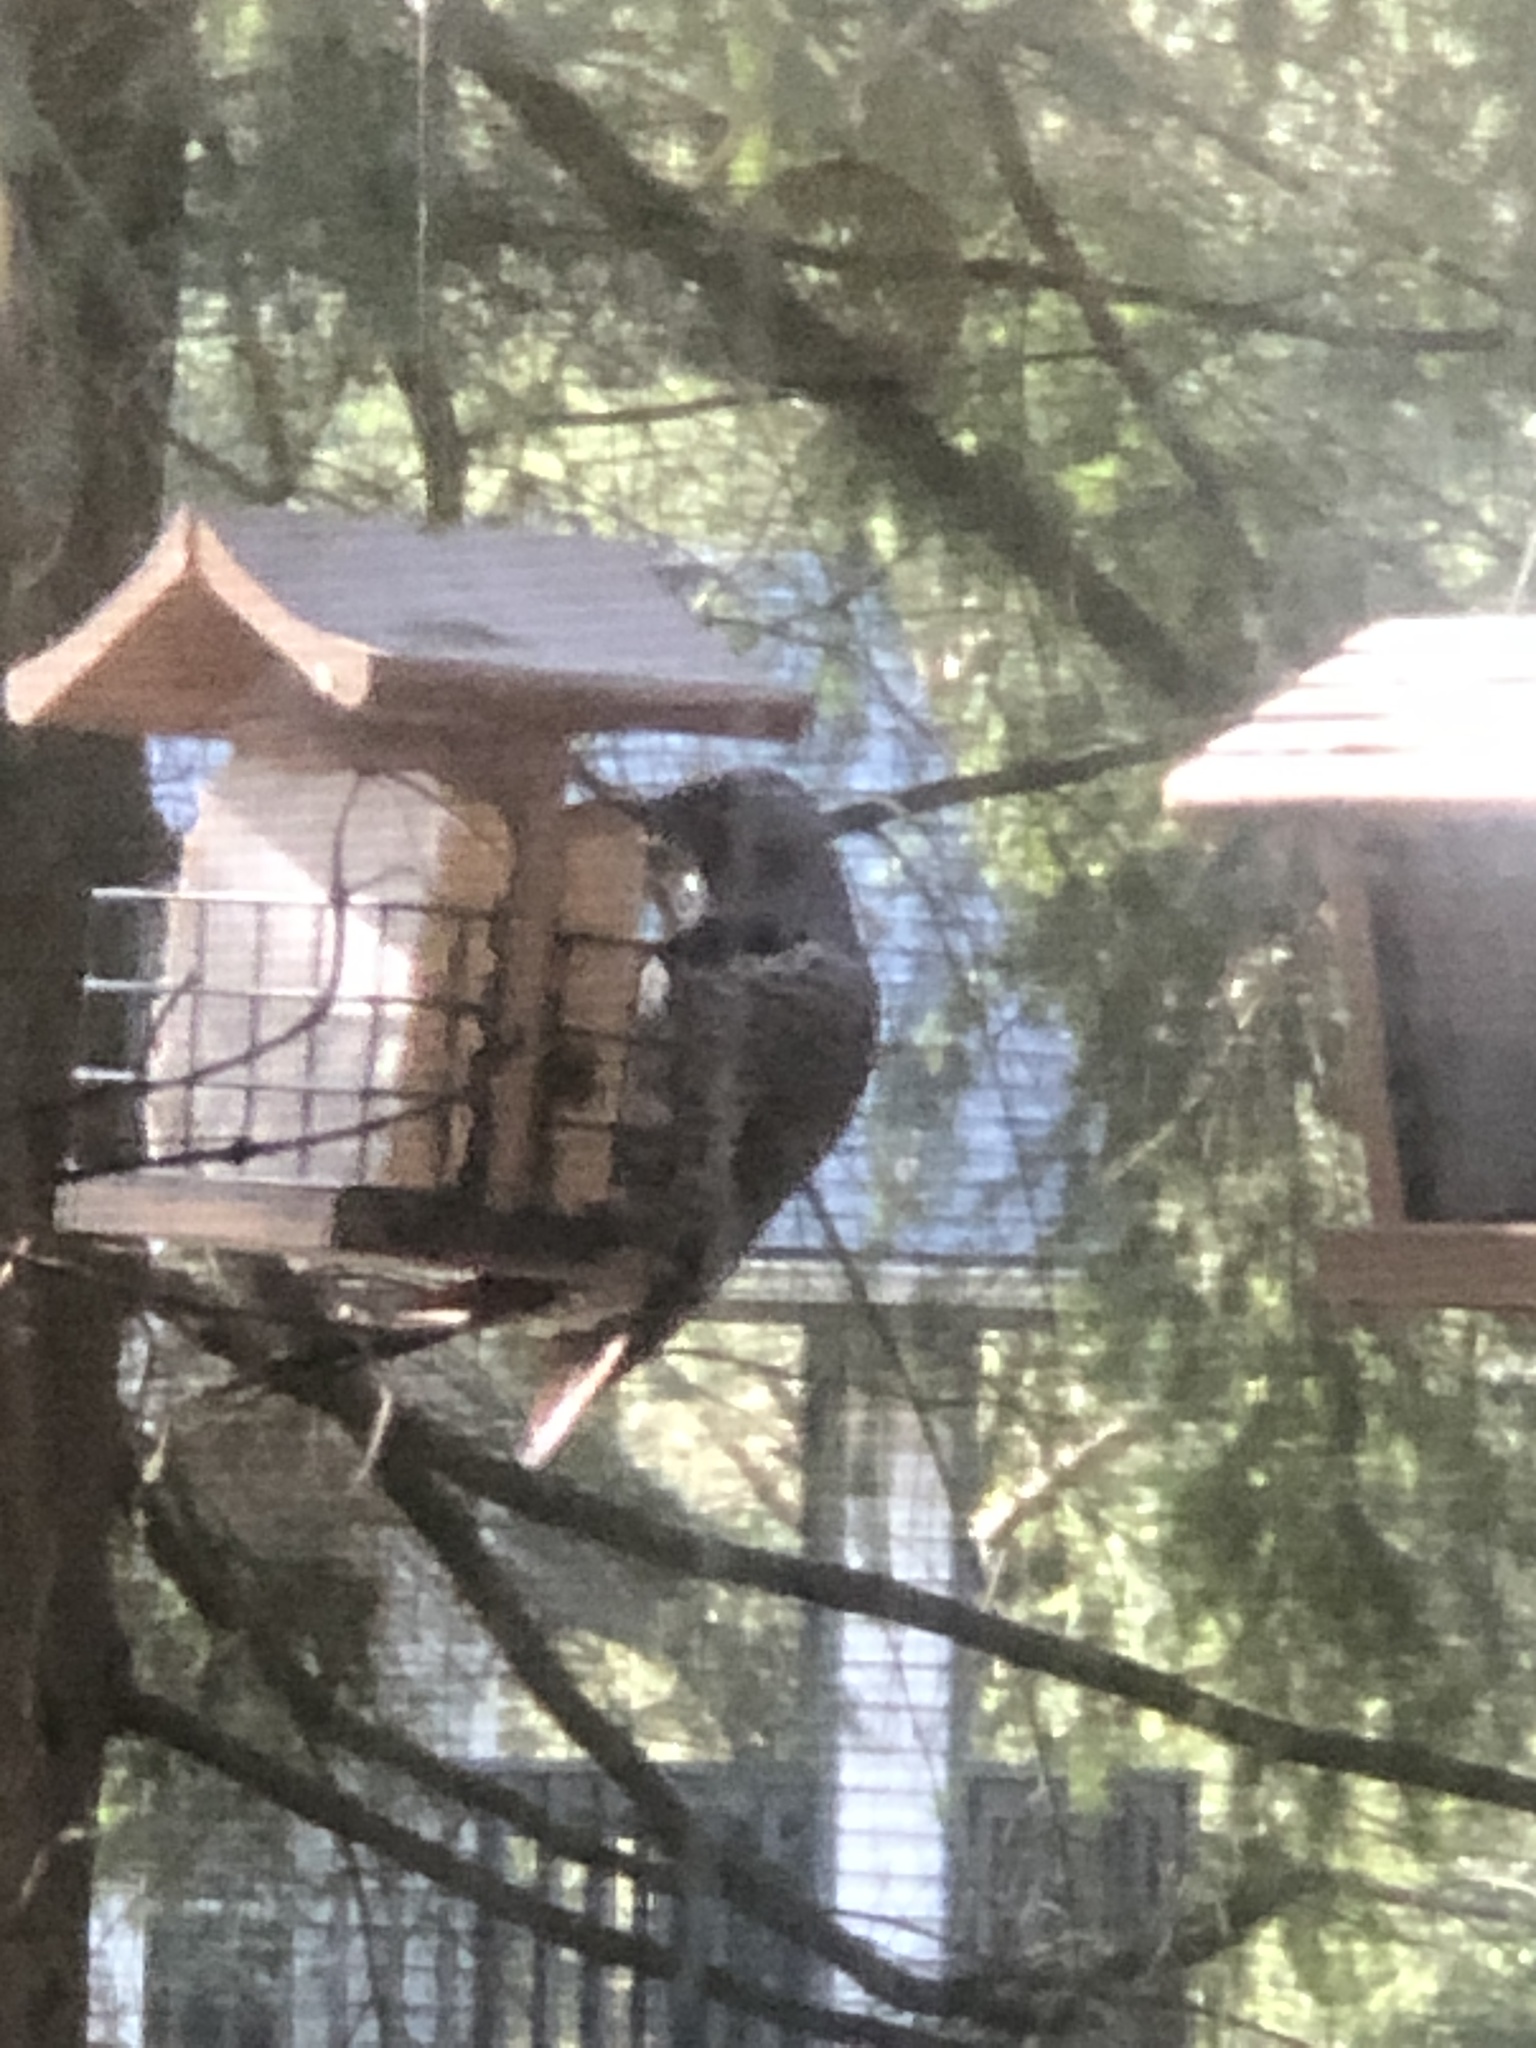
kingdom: Animalia
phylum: Chordata
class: Aves
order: Piciformes
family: Picidae
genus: Colaptes
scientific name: Colaptes auratus
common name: Northern flicker
